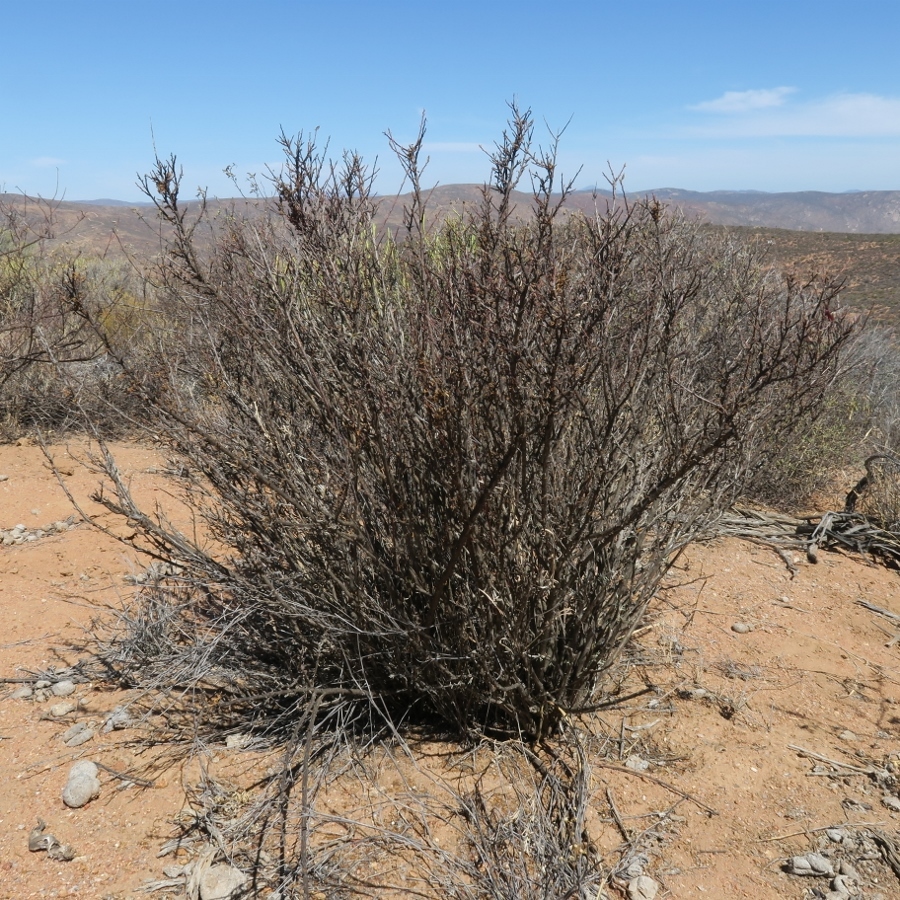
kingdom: Plantae
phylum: Tracheophyta
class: Magnoliopsida
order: Geraniales
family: Geraniaceae
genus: Pelargonium
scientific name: Pelargonium grandicalcaratum
